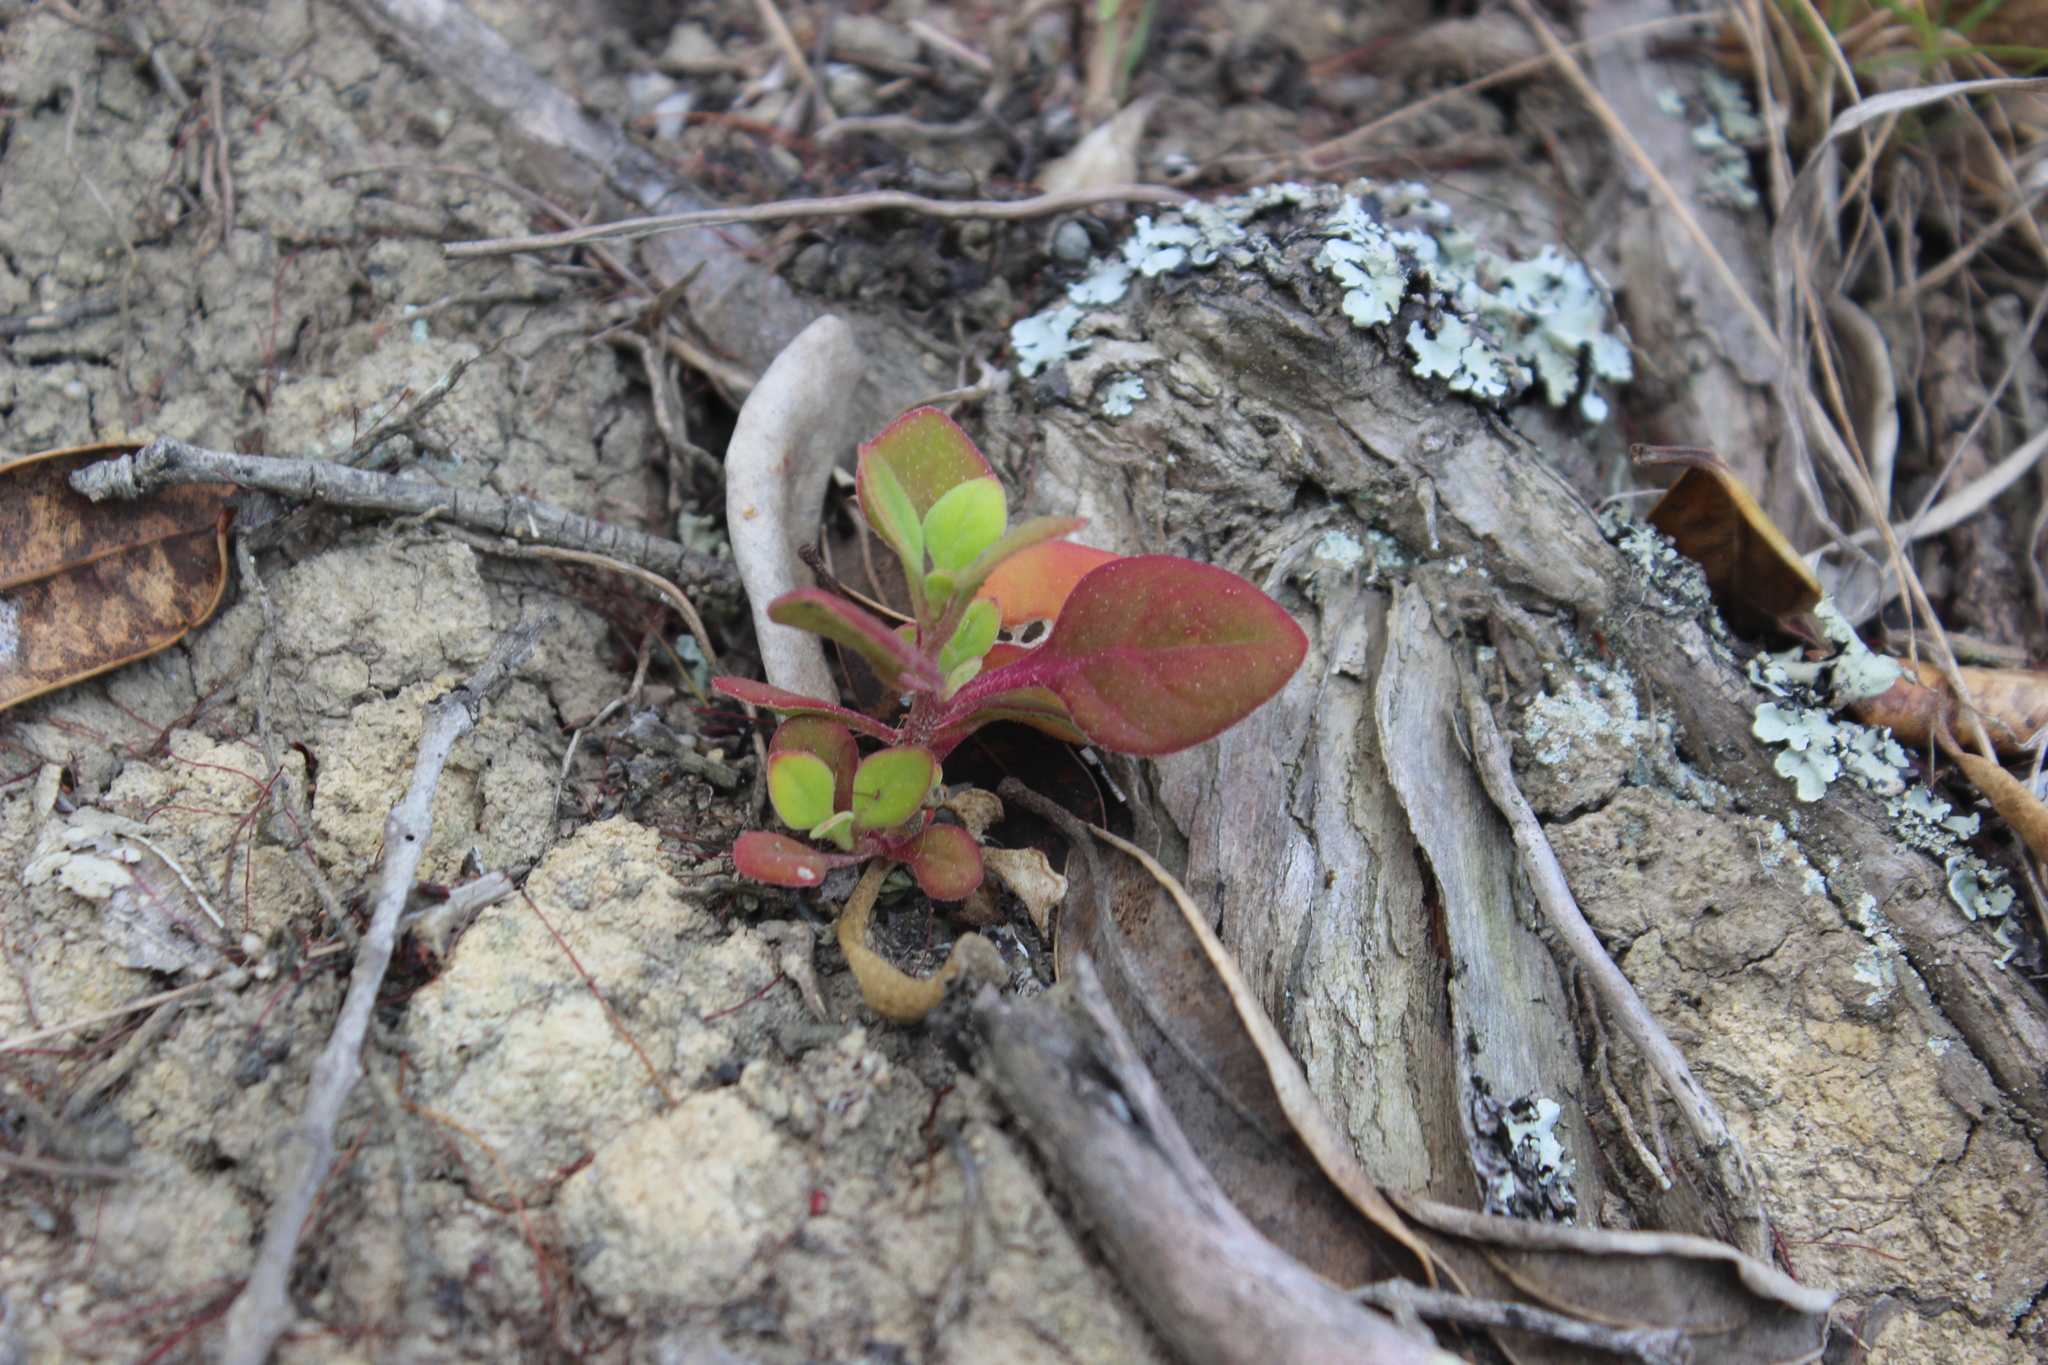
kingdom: Plantae
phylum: Tracheophyta
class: Magnoliopsida
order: Caryophyllales
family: Aizoaceae
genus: Tetragonia
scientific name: Tetragonia implexicoma
